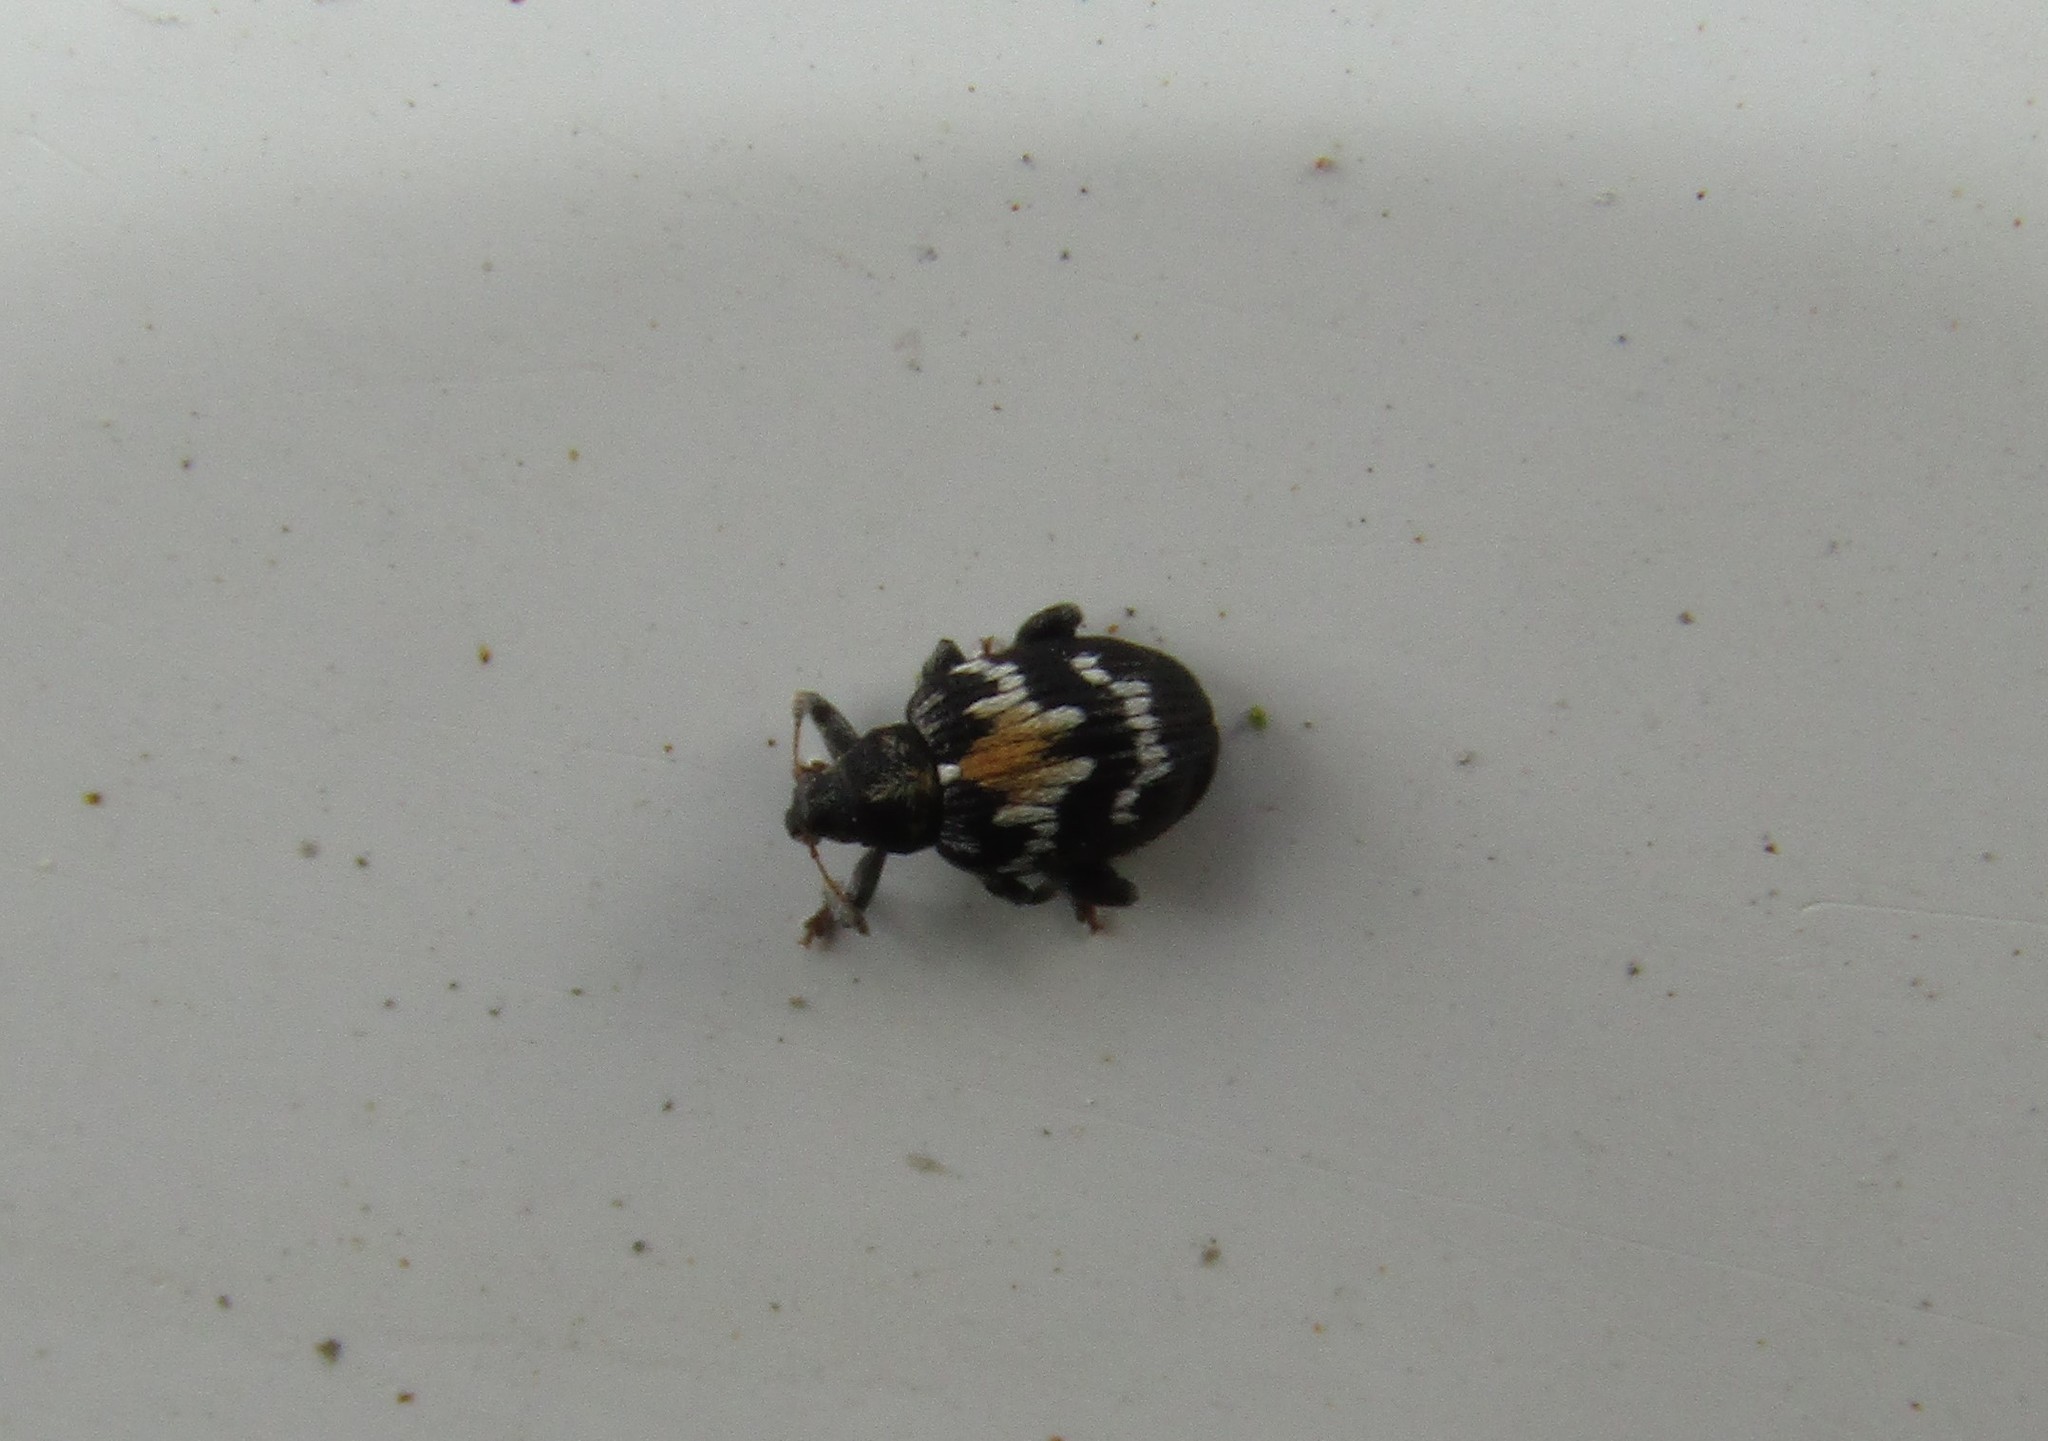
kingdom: Animalia
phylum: Arthropoda
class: Insecta
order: Coleoptera
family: Curculionidae
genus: Tachyerges
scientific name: Tachyerges salicis
